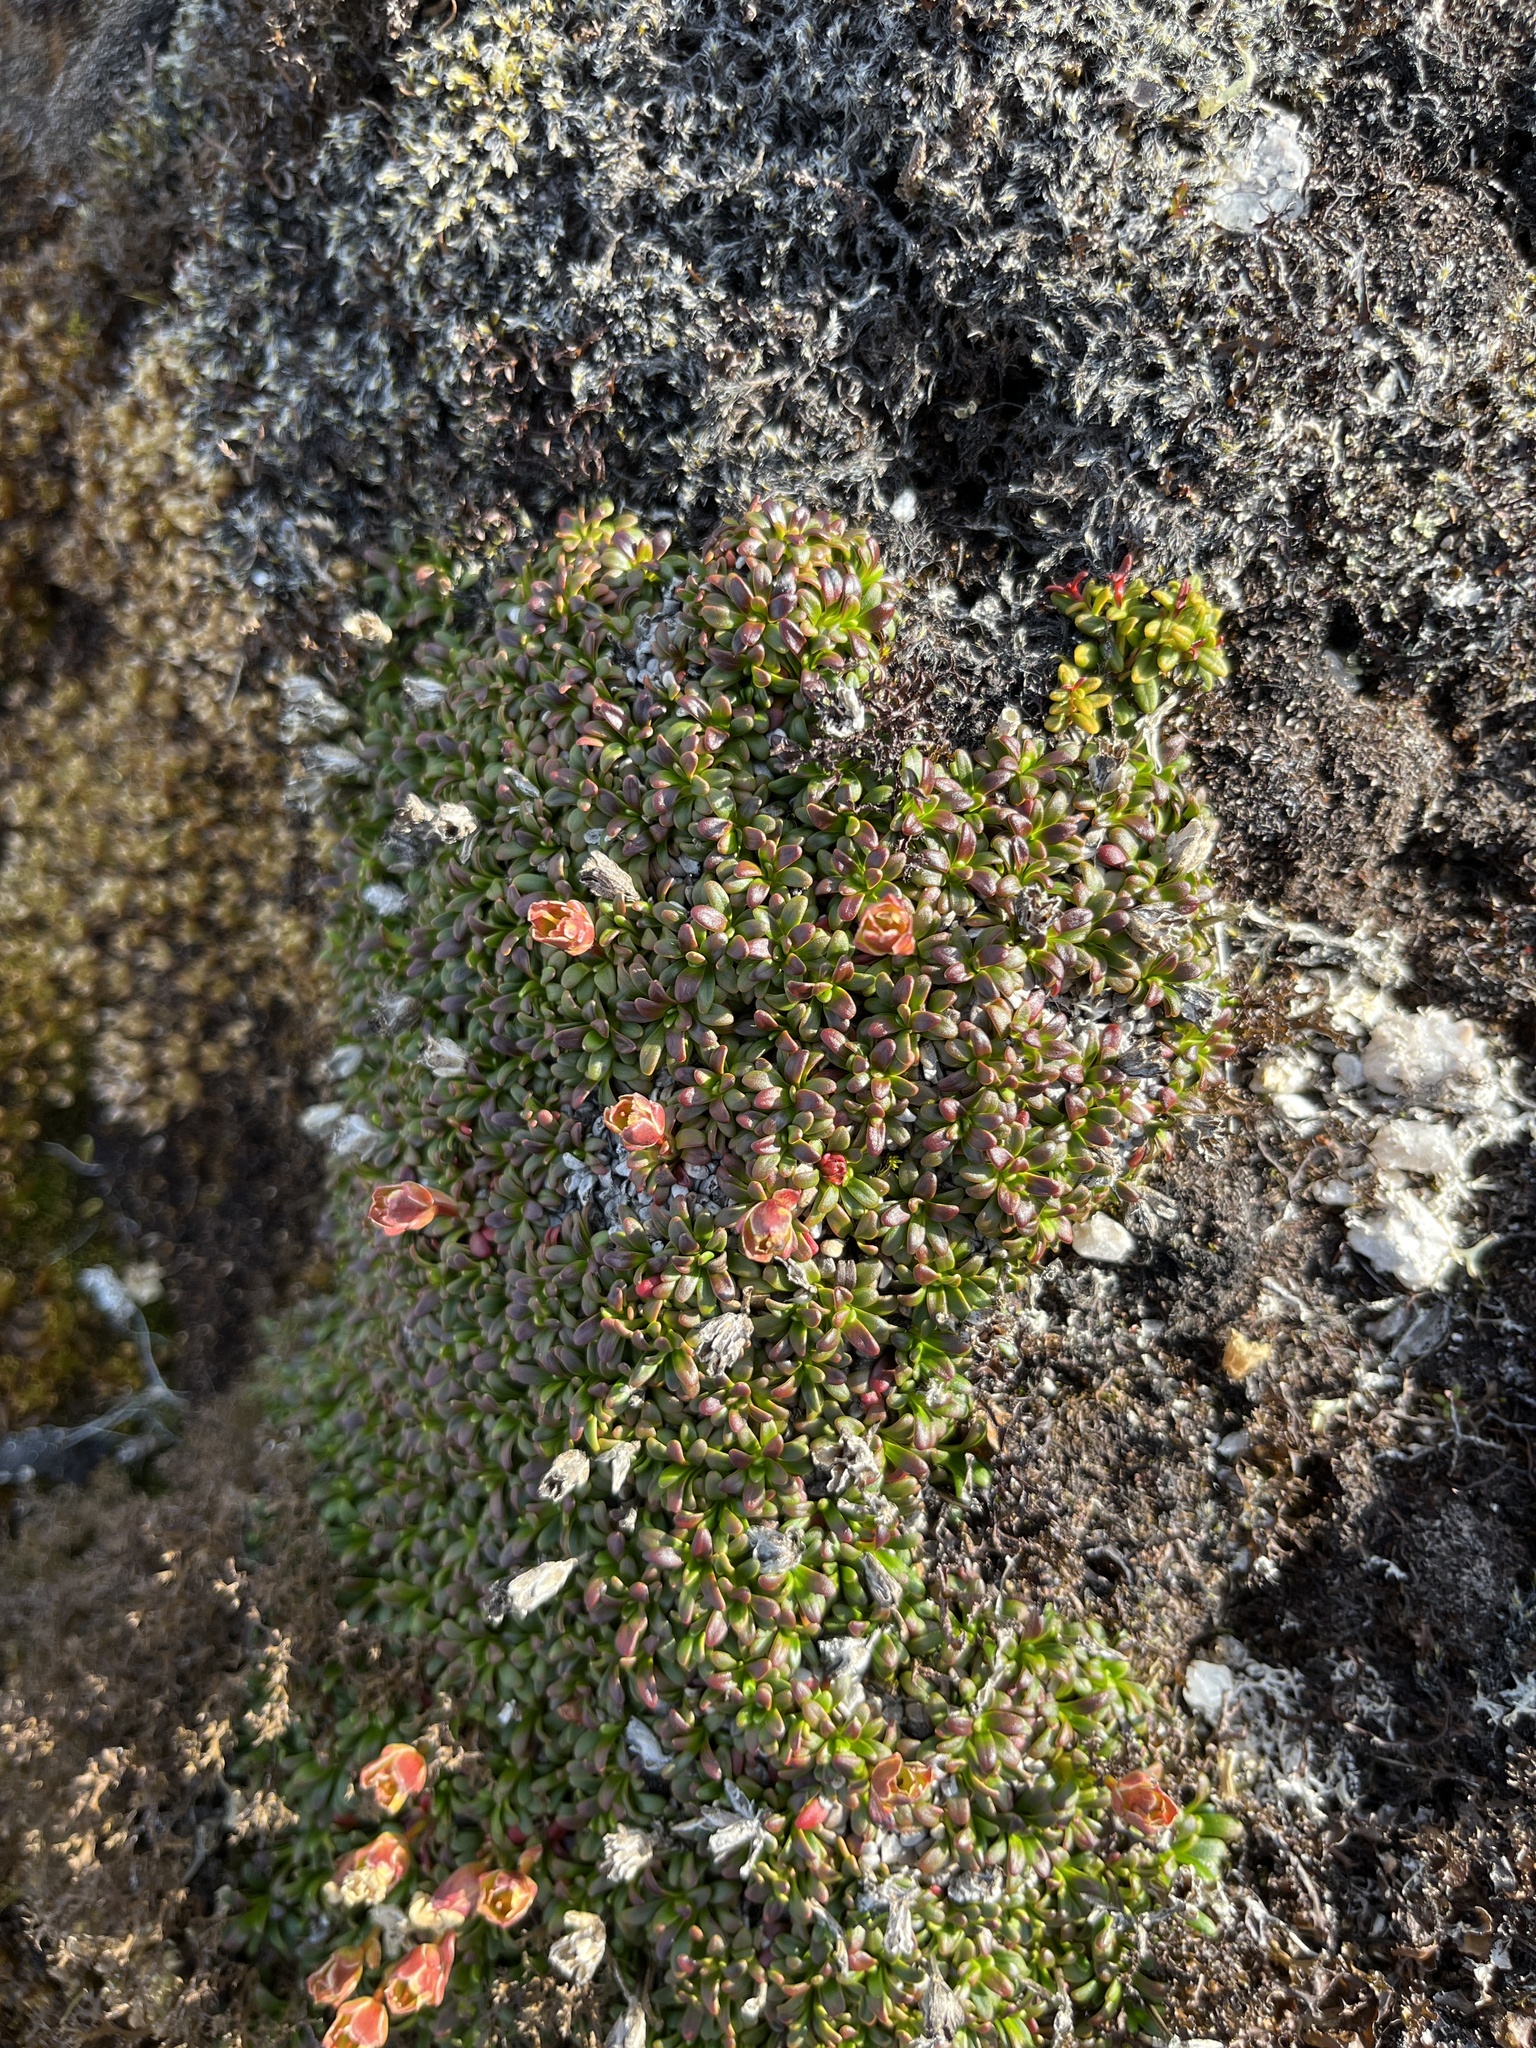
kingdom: Plantae
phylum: Tracheophyta
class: Magnoliopsida
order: Ericales
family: Diapensiaceae
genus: Diapensia
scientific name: Diapensia lapponica
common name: Diapensia
